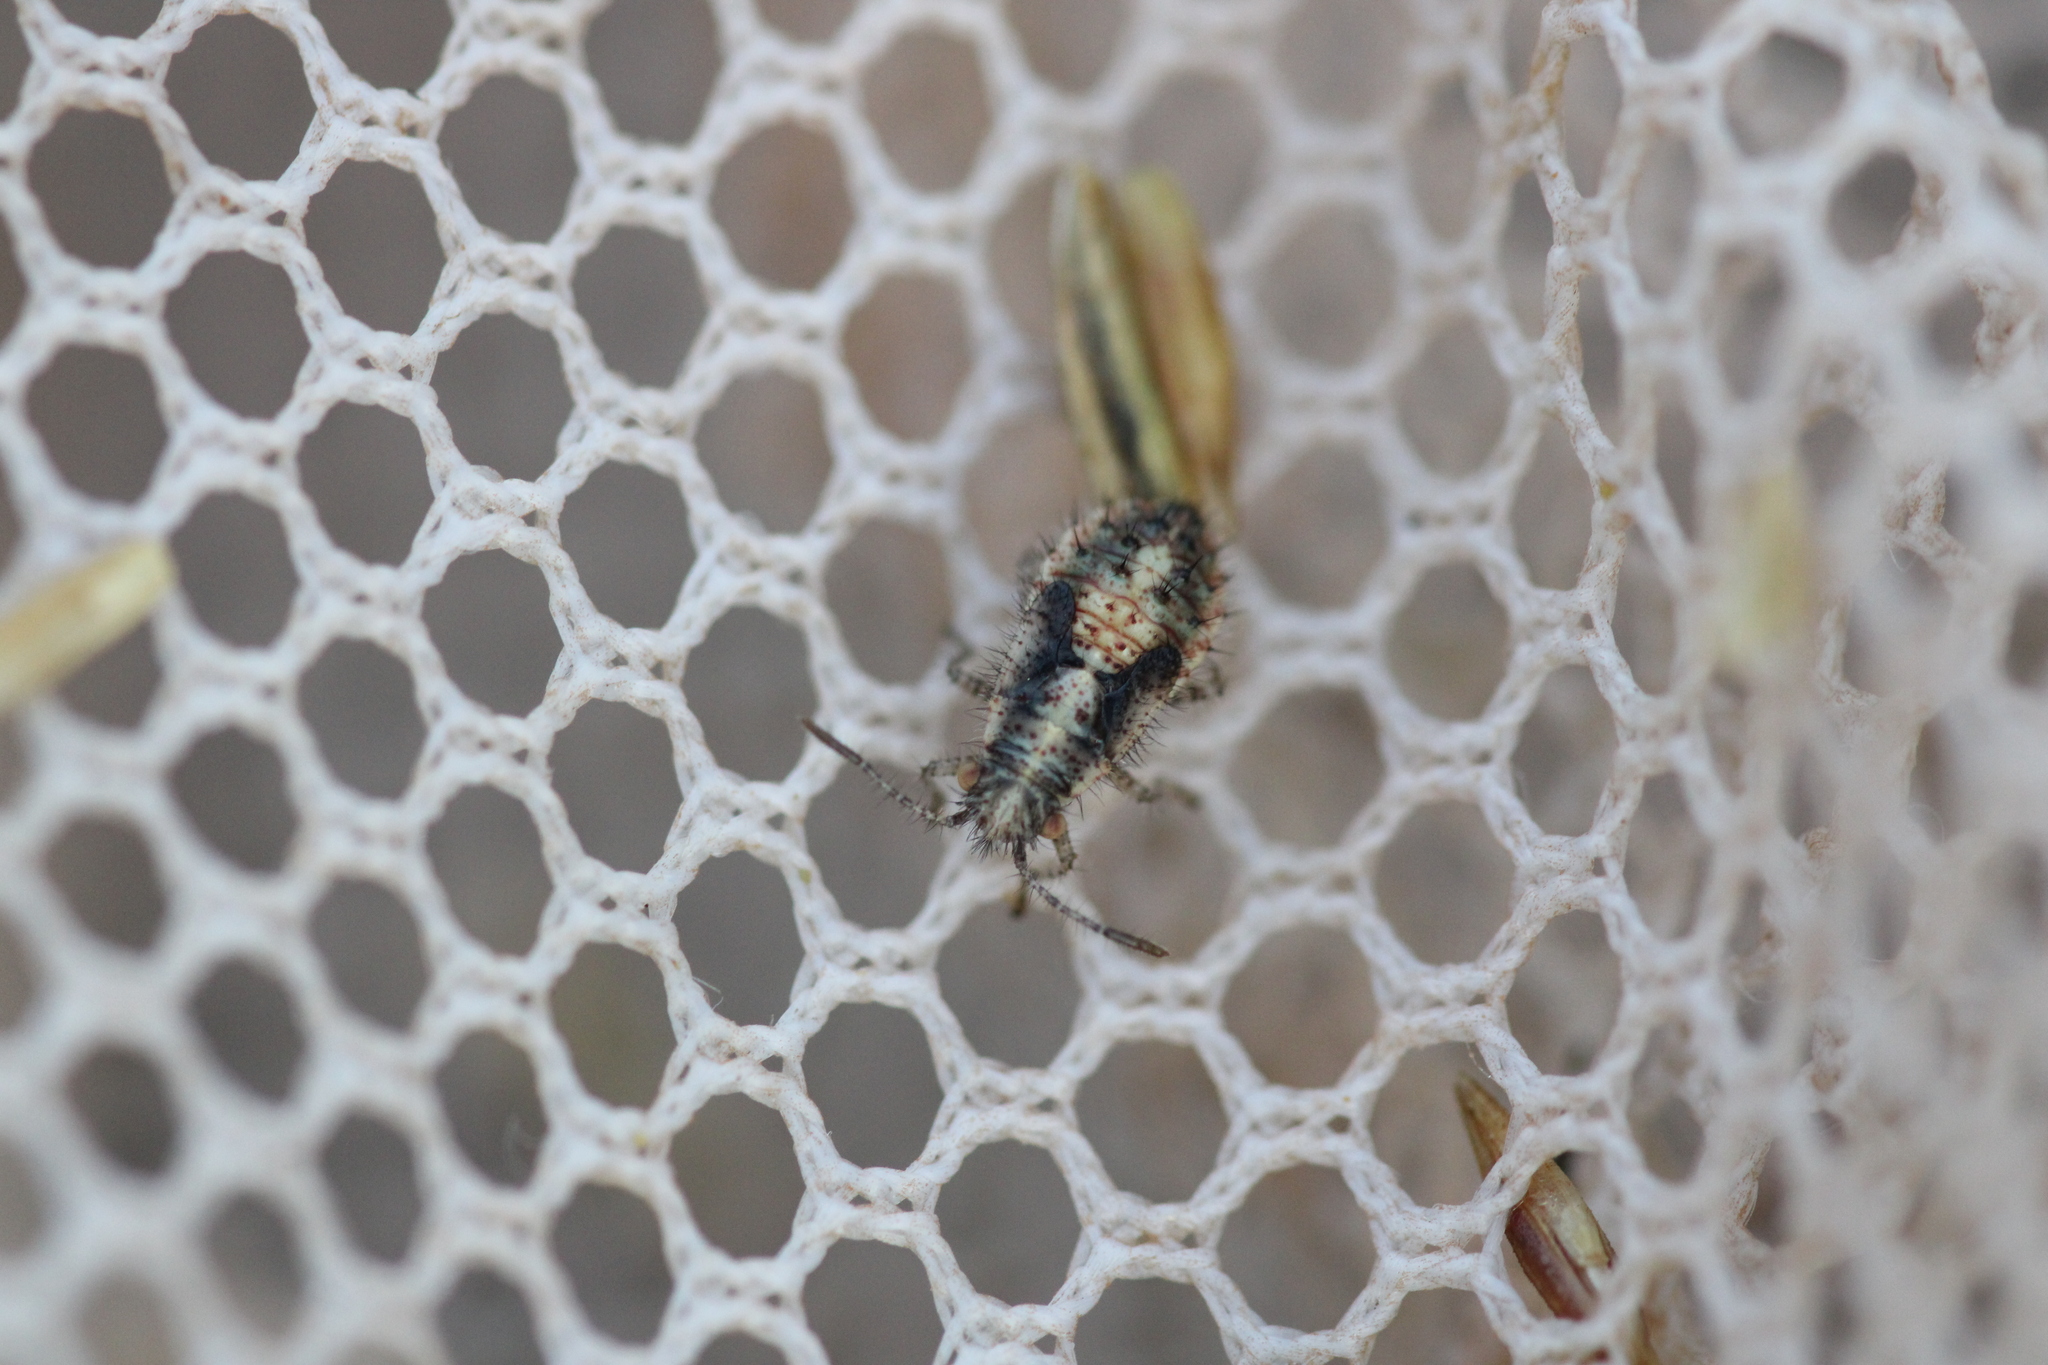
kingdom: Animalia
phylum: Arthropoda
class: Insecta
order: Hemiptera
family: Rhopalidae
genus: Brachycarenus
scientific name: Brachycarenus tigrinus
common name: Scentless plant bug
